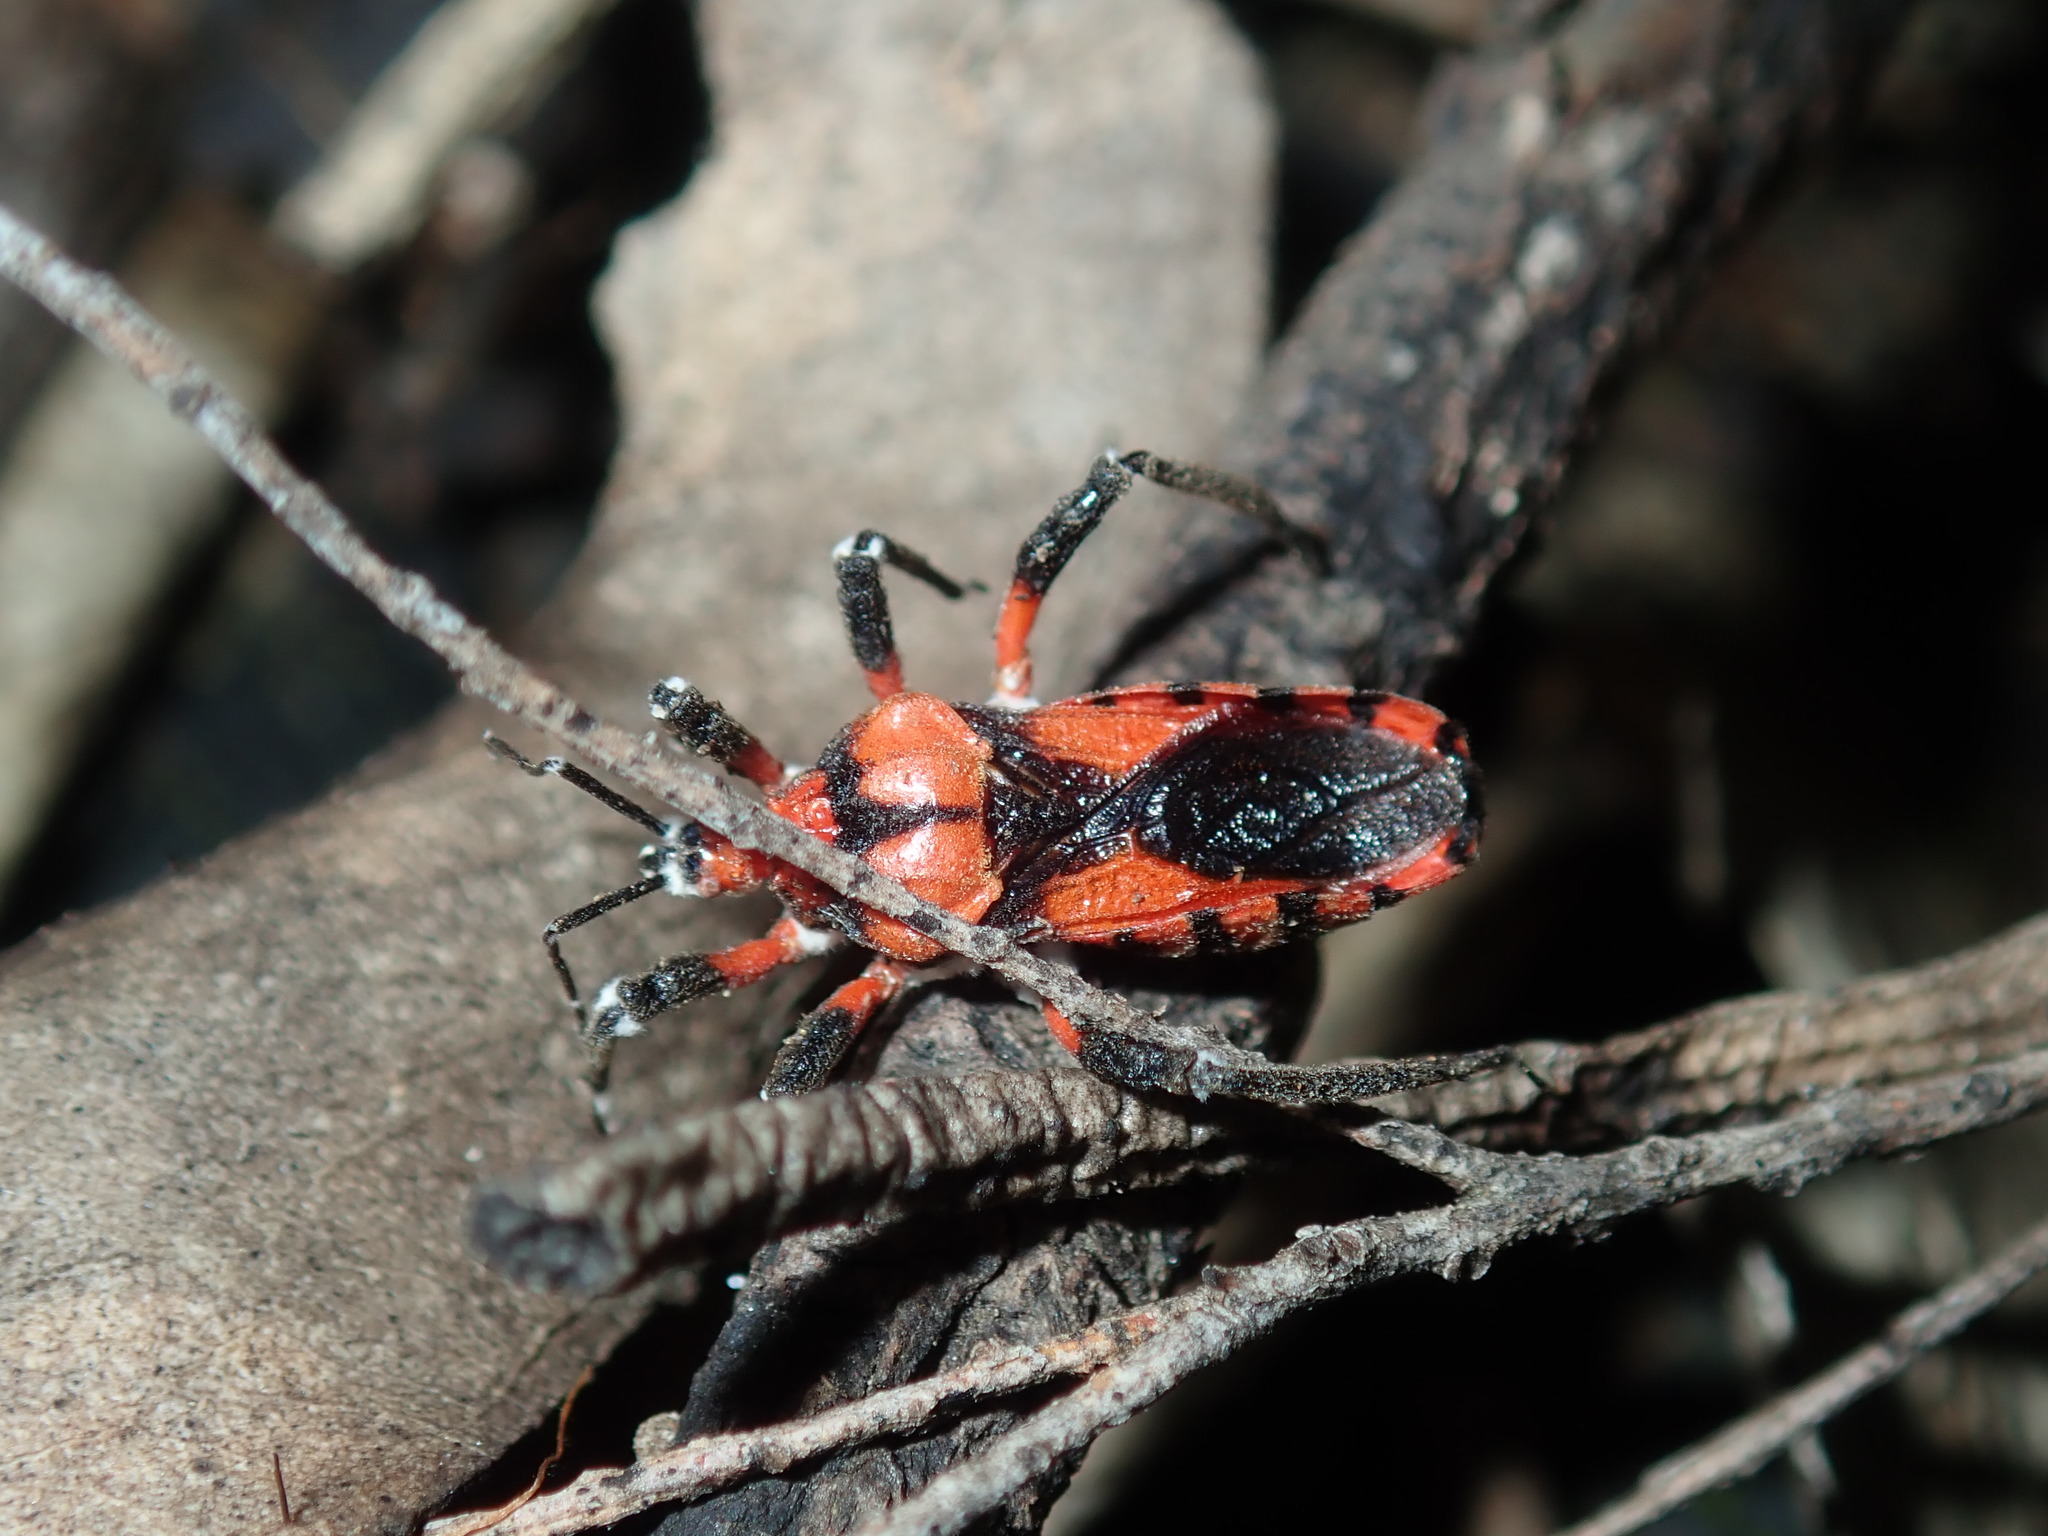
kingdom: Animalia
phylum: Arthropoda
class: Insecta
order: Hemiptera
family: Reduviidae
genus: Tegea
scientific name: Tegea atropicta
